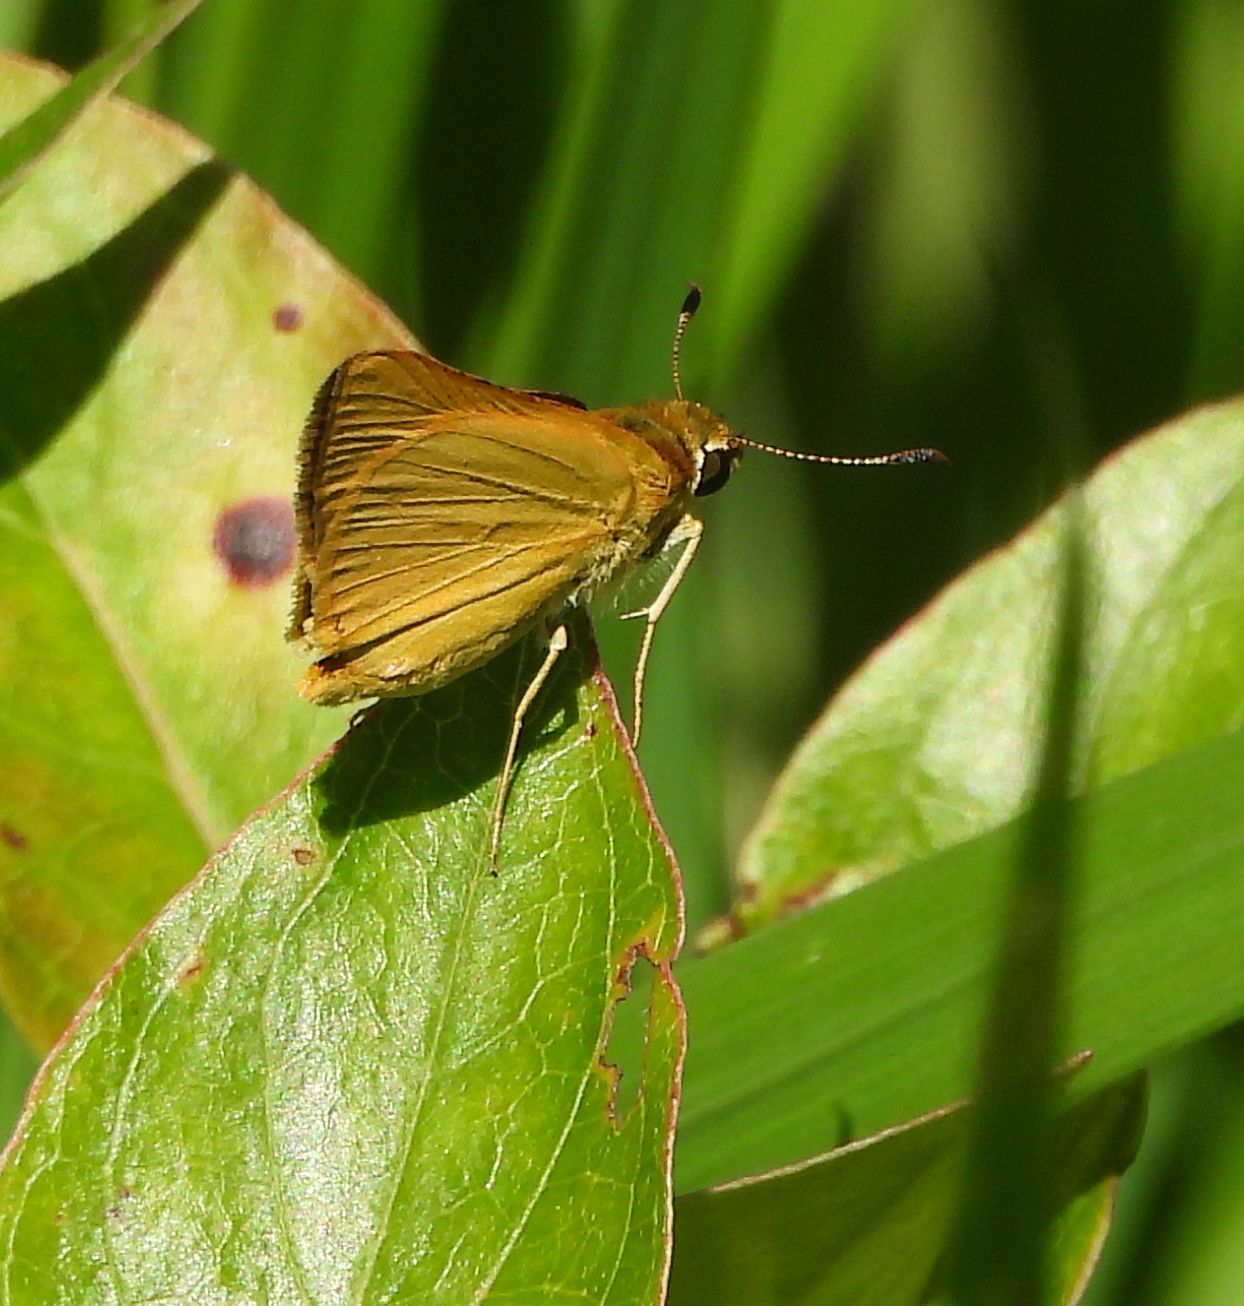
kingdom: Animalia
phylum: Arthropoda
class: Insecta
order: Lepidoptera
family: Hesperiidae
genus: Atrytone
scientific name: Atrytone delaware
